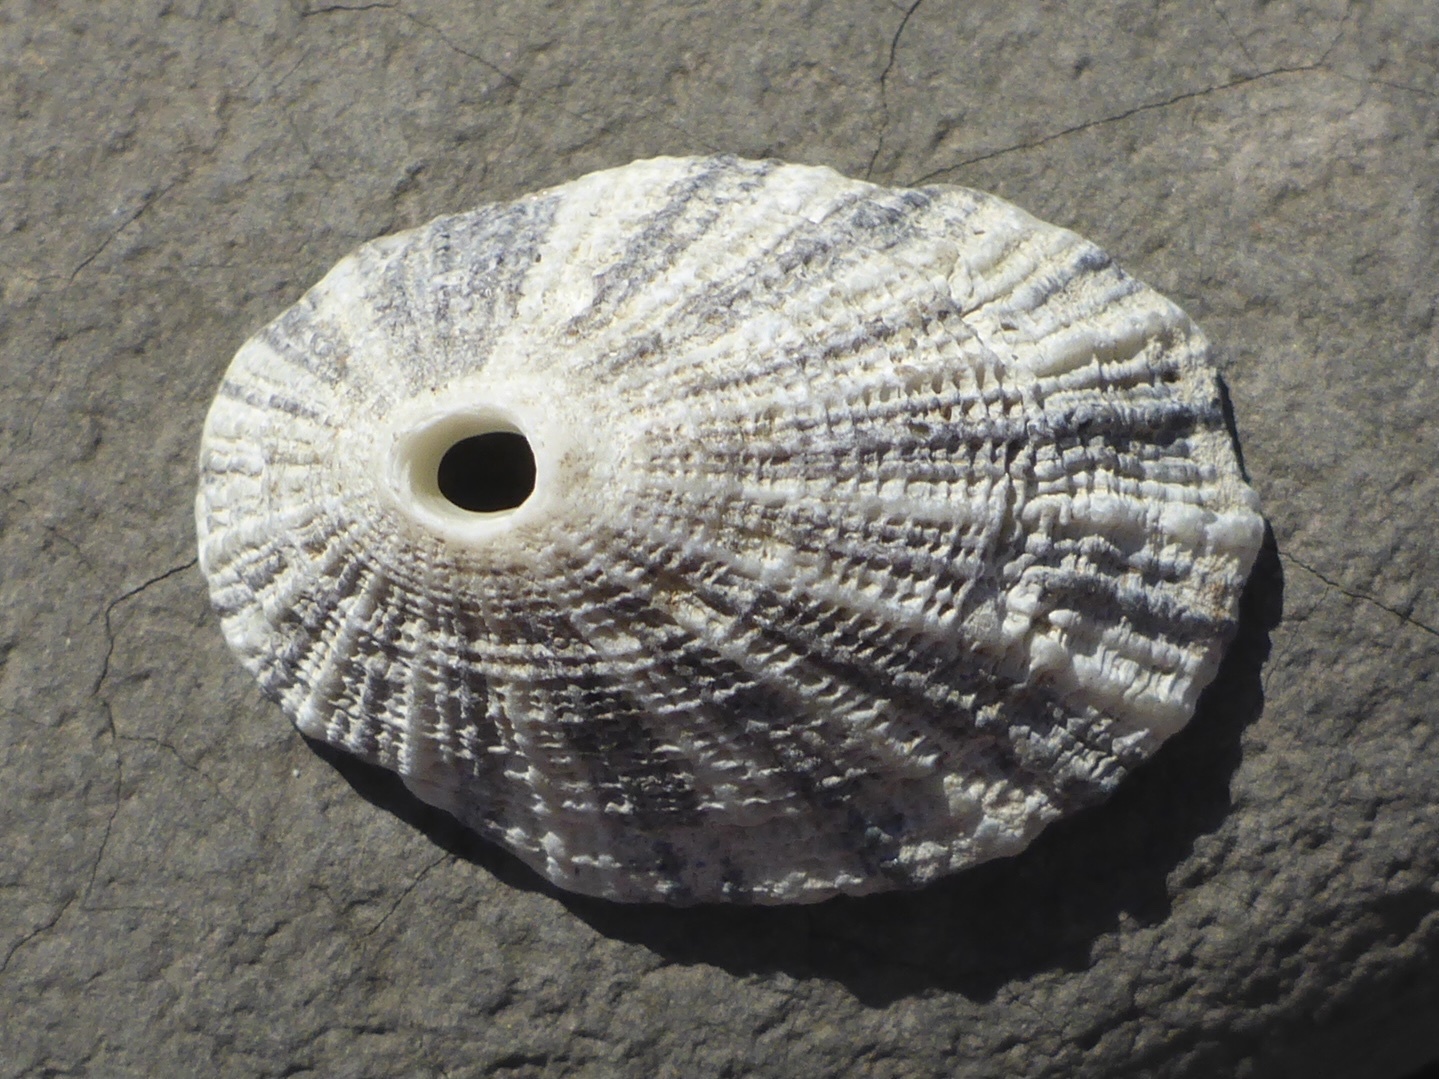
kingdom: Animalia
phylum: Mollusca
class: Gastropoda
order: Lepetellida
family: Fissurellidae
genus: Diodora
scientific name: Diodora aspera
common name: Rough keyhole limpet
